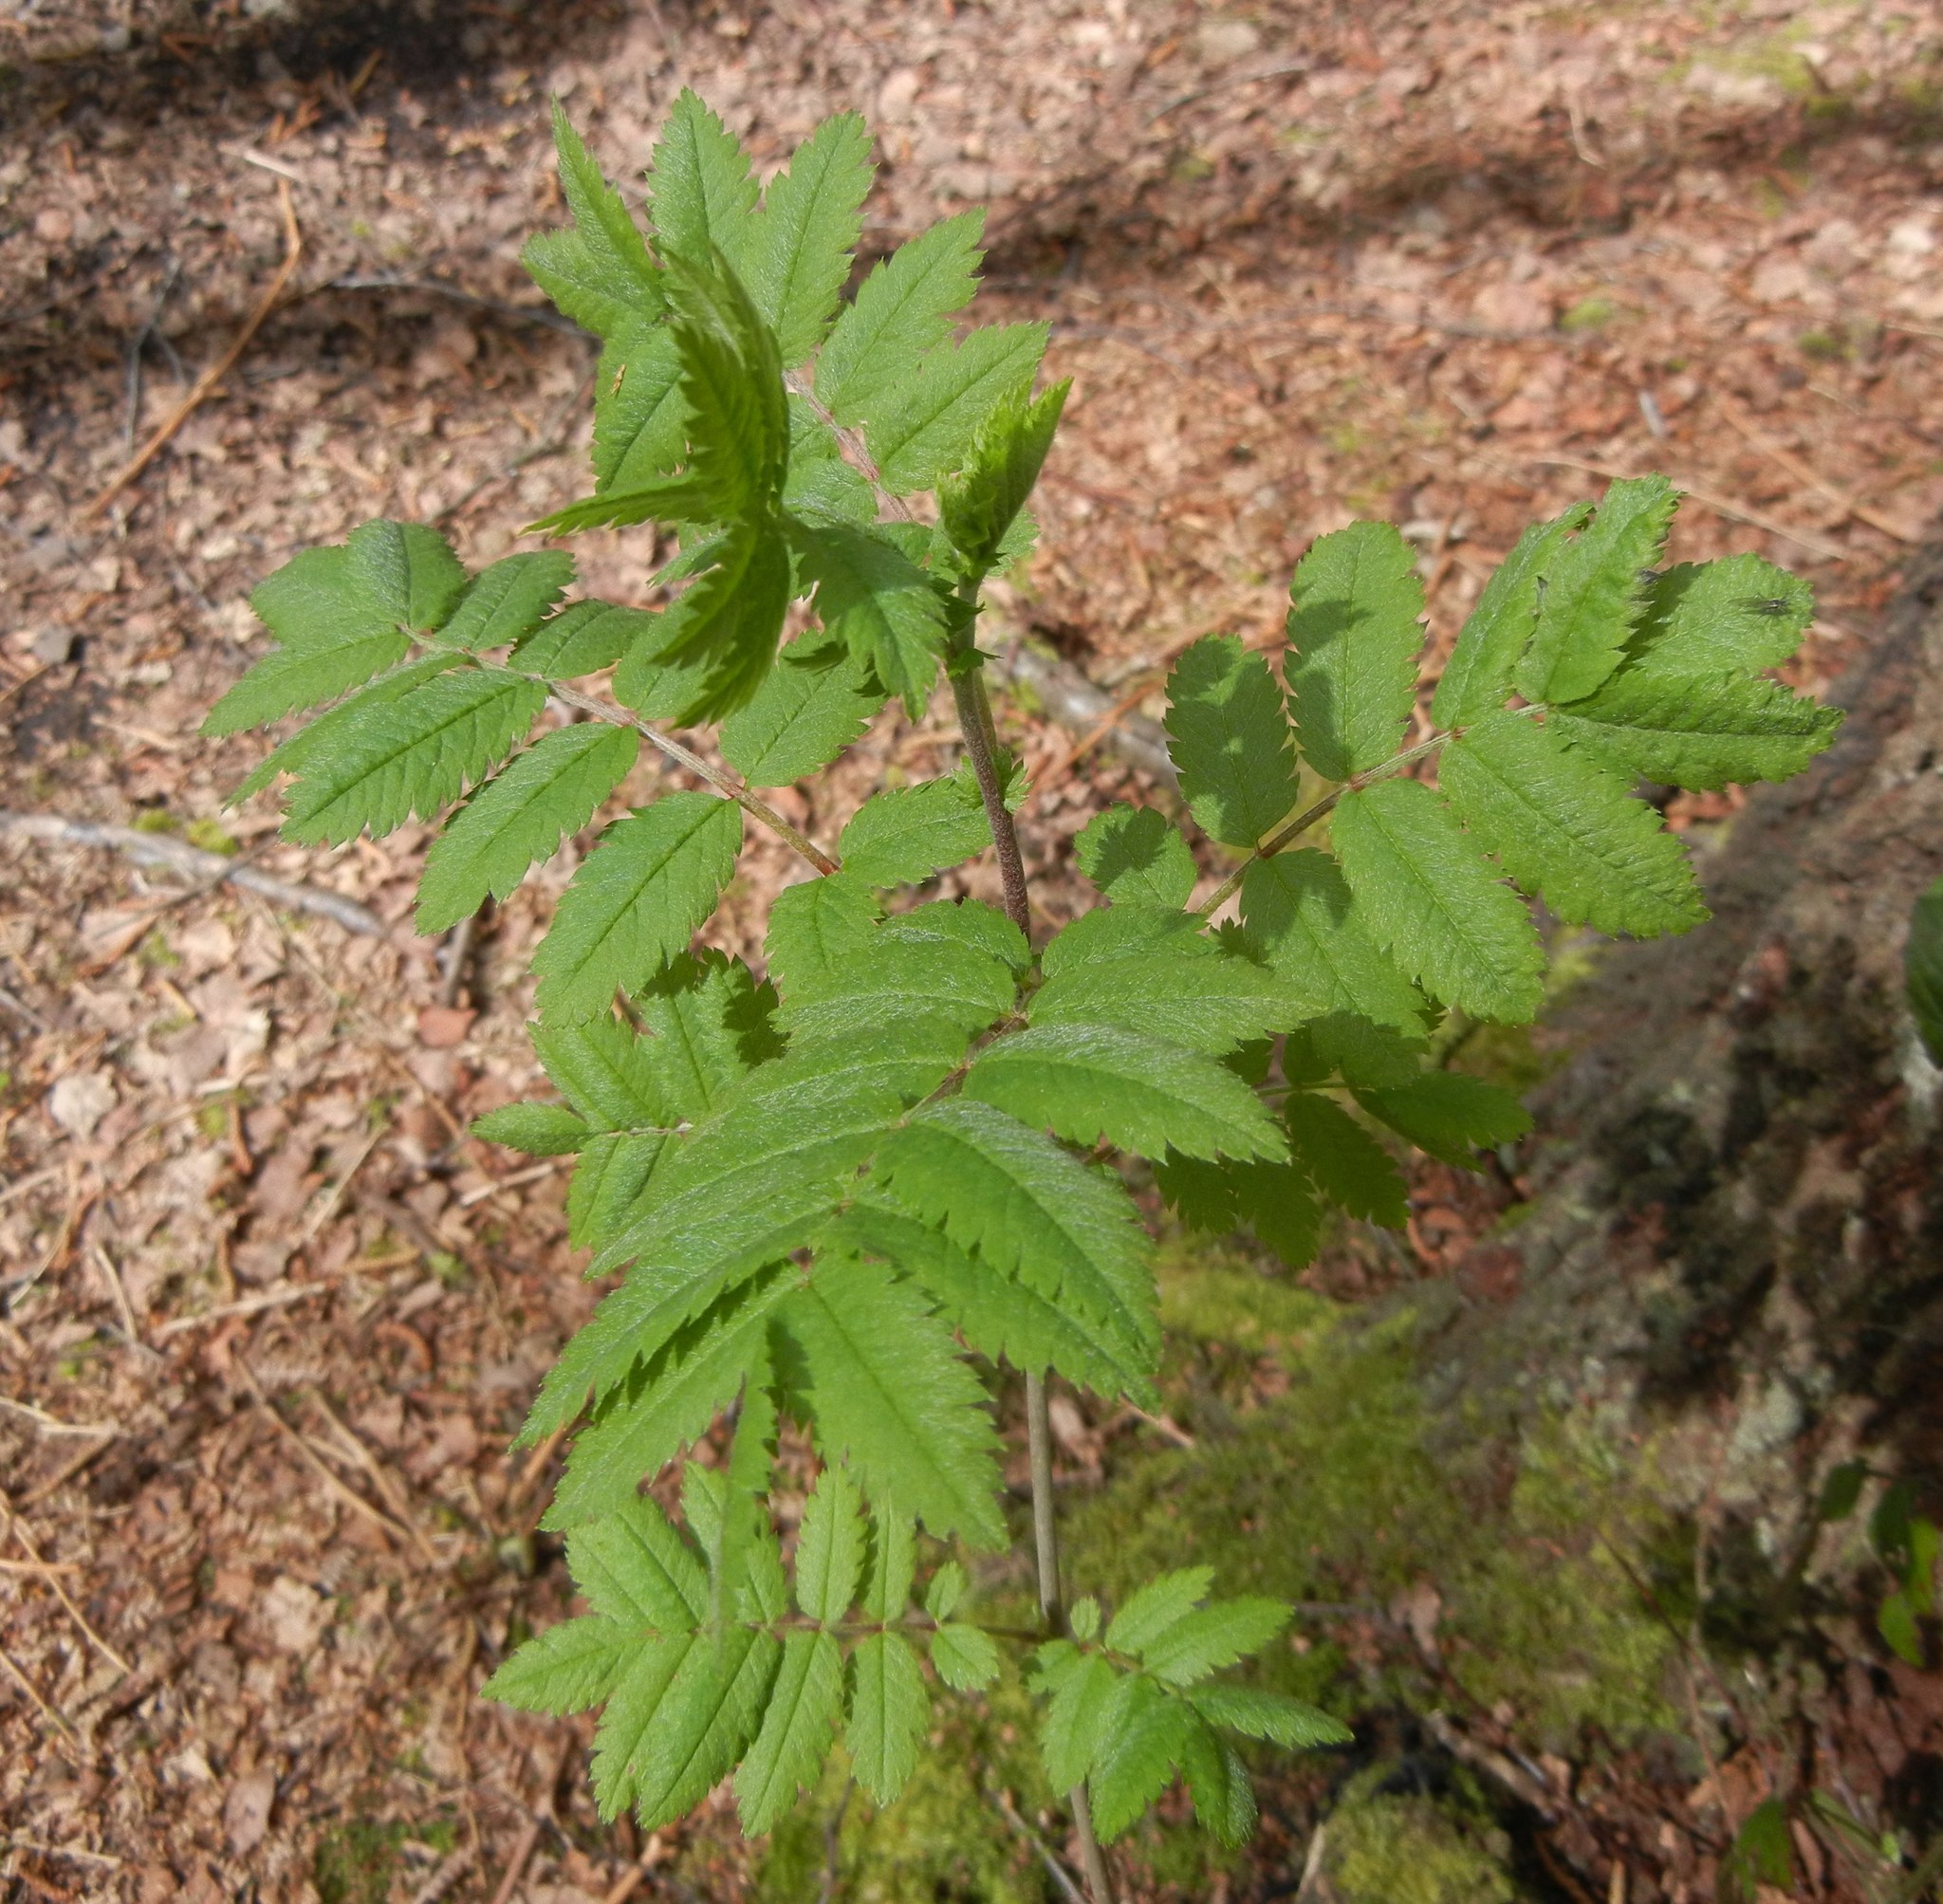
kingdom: Plantae
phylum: Tracheophyta
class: Magnoliopsida
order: Rosales
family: Rosaceae
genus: Sorbus
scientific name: Sorbus aucuparia
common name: Rowan
